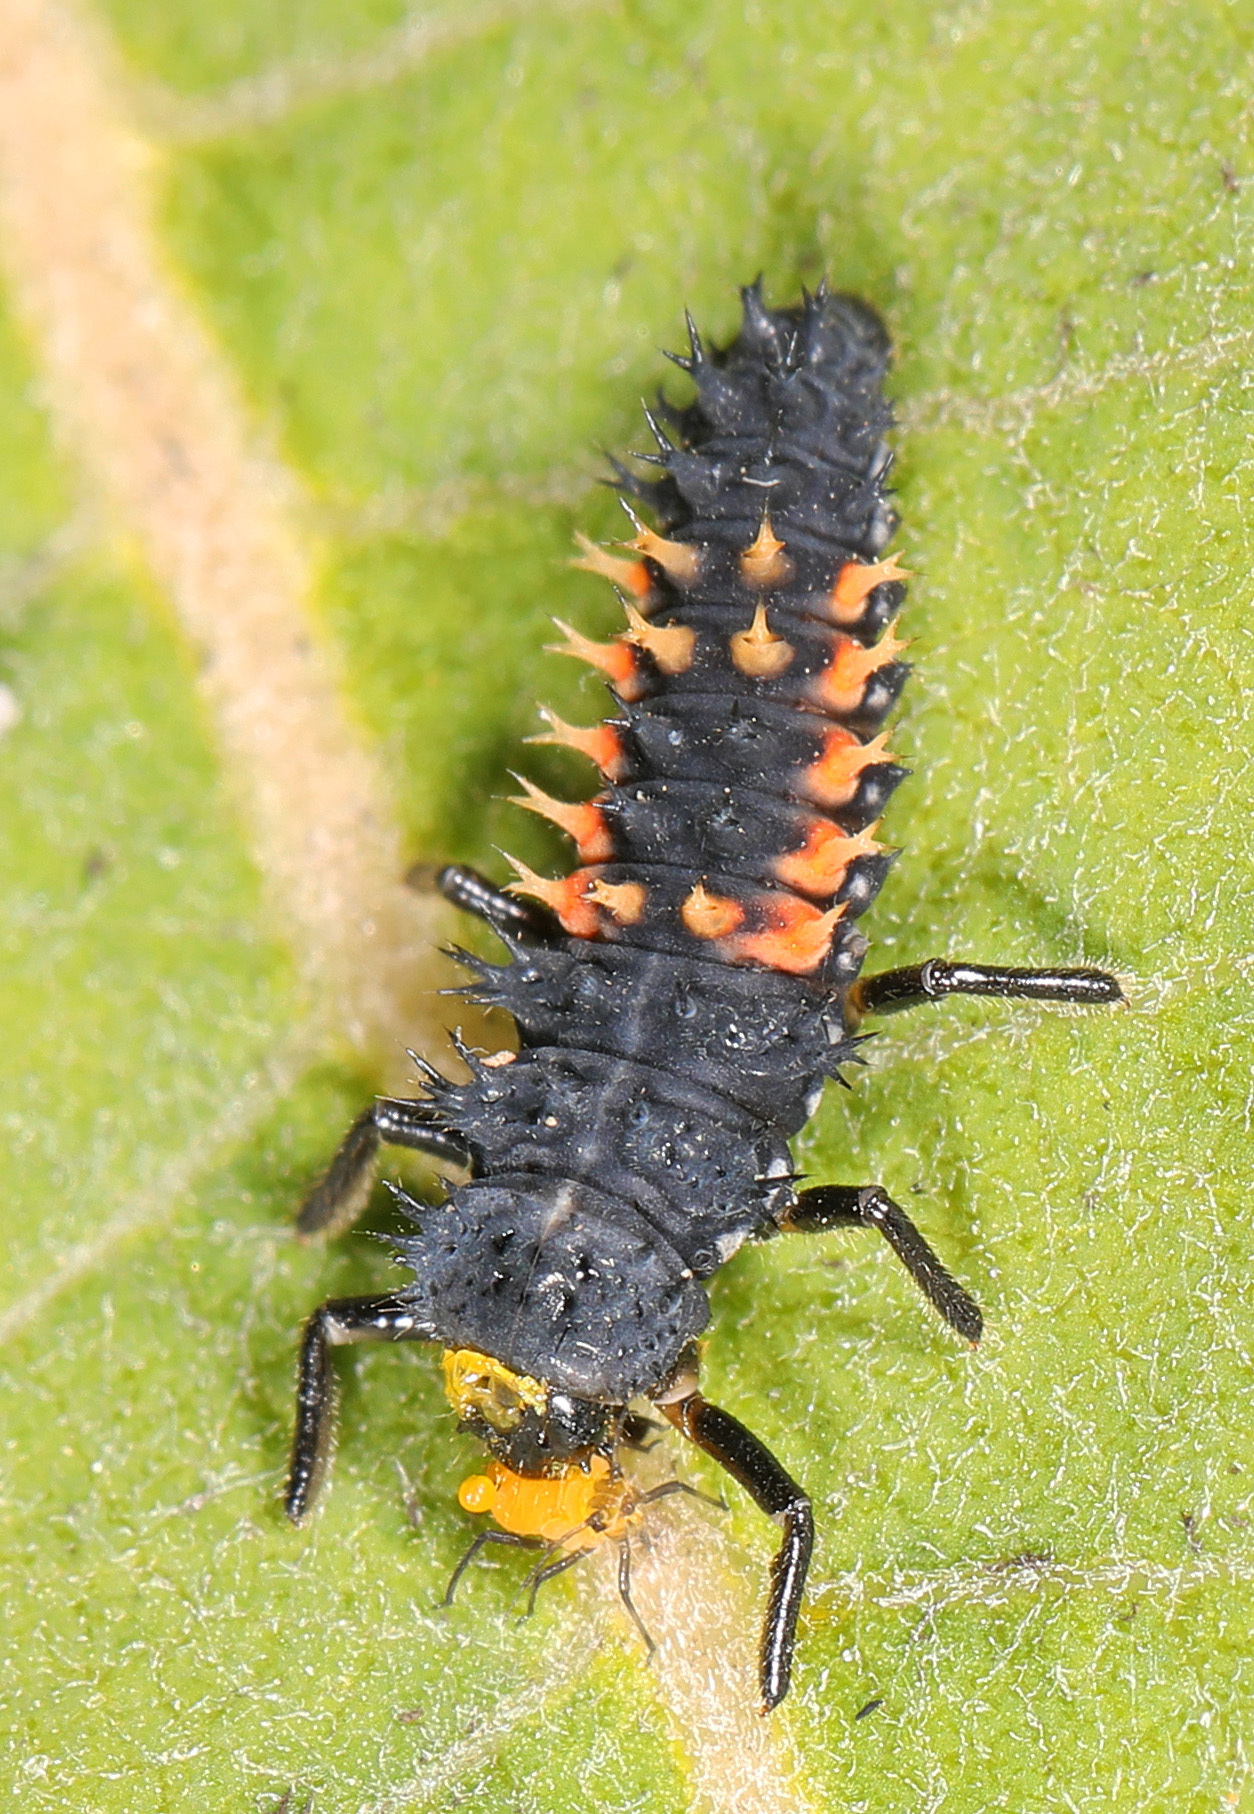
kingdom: Animalia
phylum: Arthropoda
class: Insecta
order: Coleoptera
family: Coccinellidae
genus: Harmonia
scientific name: Harmonia axyridis
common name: Harlequin ladybird
